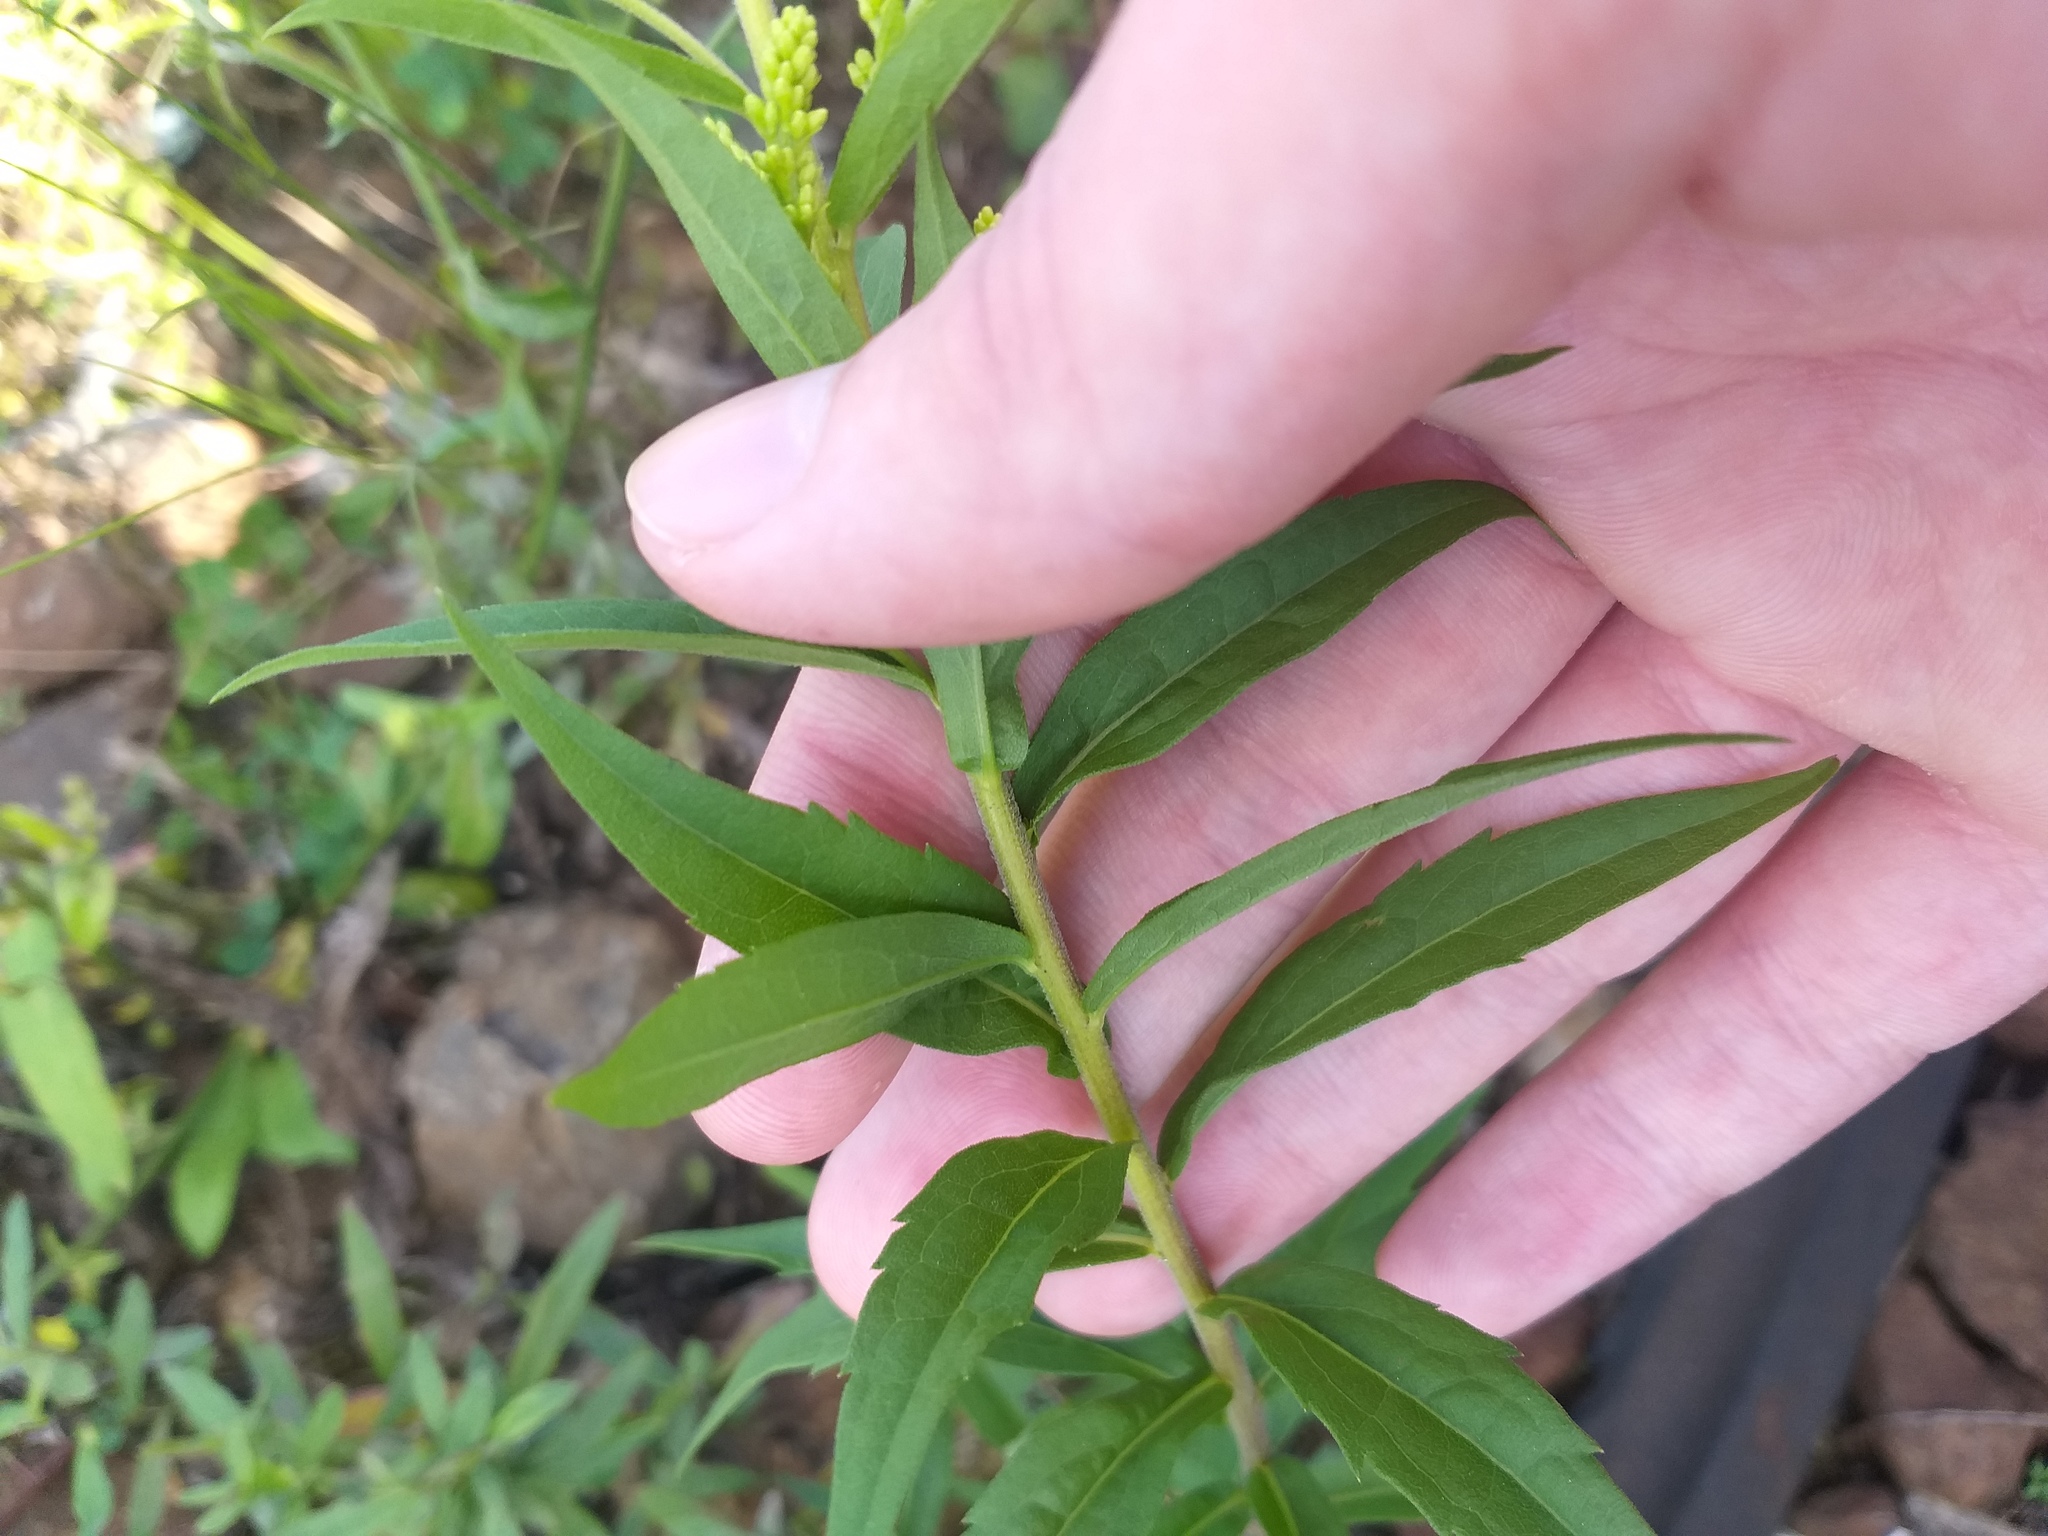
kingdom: Plantae
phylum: Tracheophyta
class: Magnoliopsida
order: Asterales
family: Asteraceae
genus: Solidago
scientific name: Solidago canadensis
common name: Canada goldenrod
